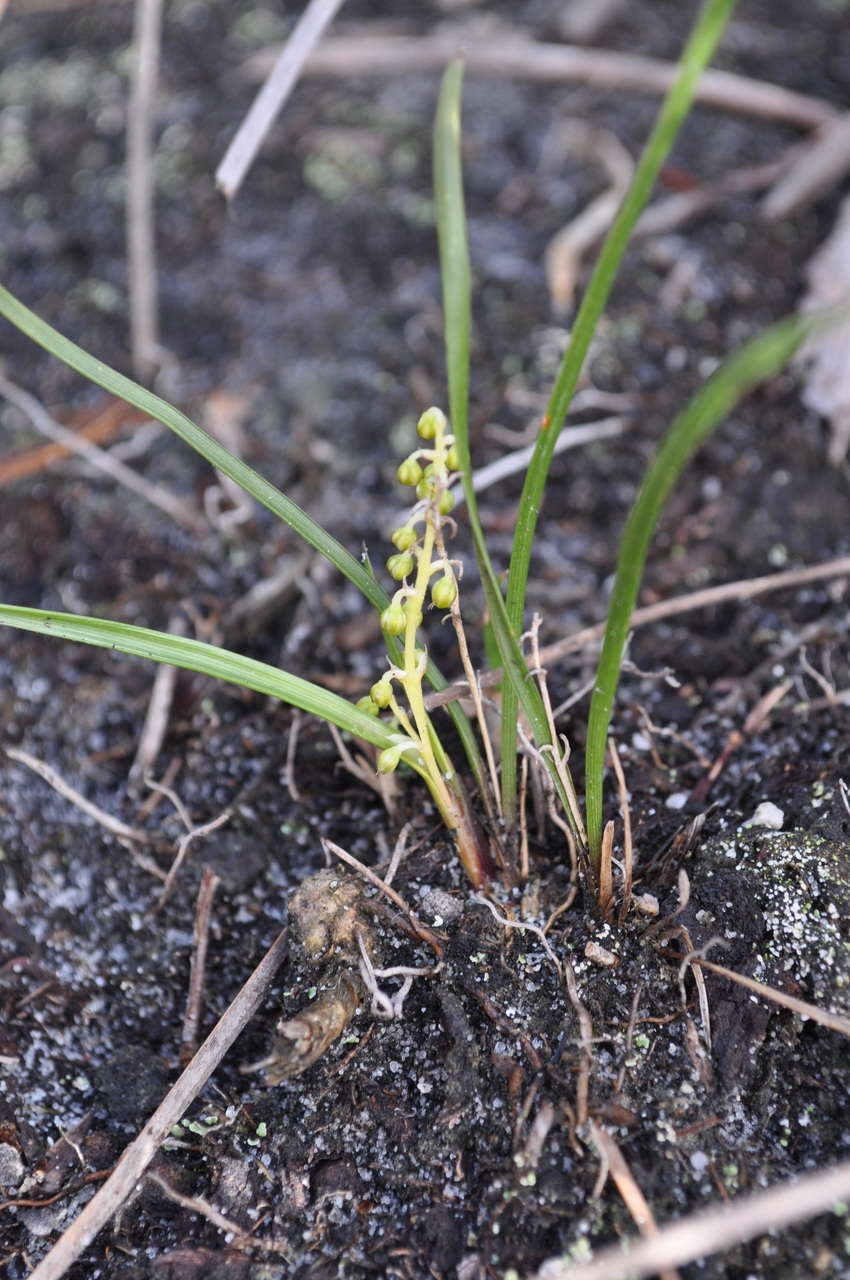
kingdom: Plantae
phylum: Tracheophyta
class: Liliopsida
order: Asparagales
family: Asparagaceae
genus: Lomandra
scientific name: Lomandra filiformis
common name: Wattle mat-rush
